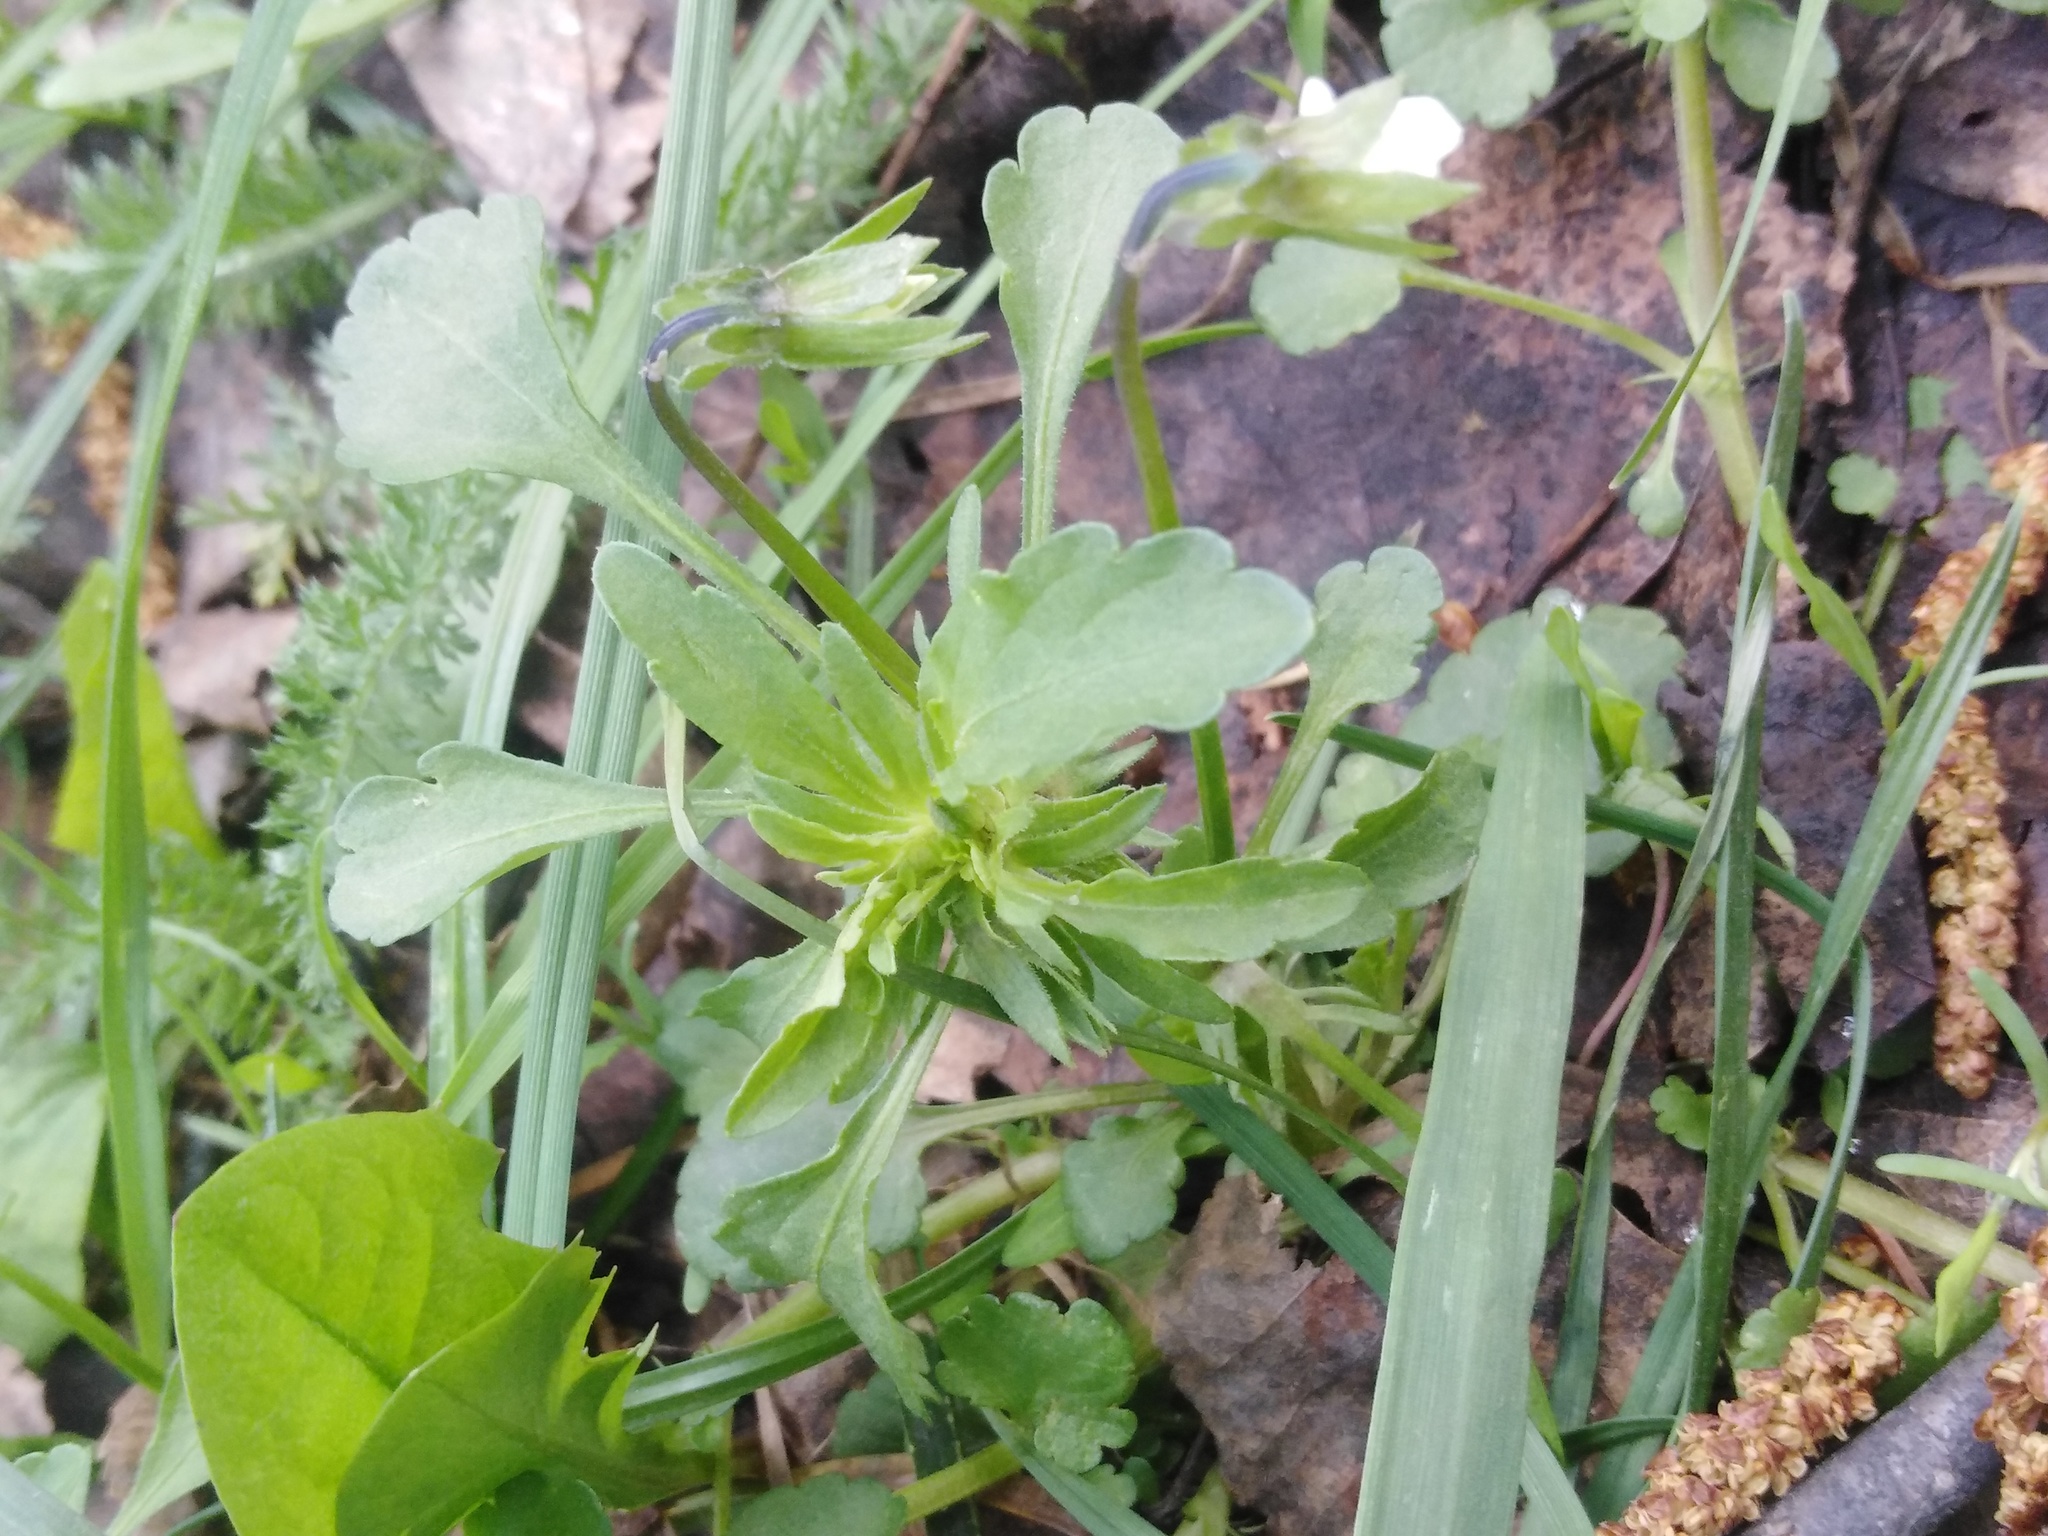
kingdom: Plantae
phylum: Tracheophyta
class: Magnoliopsida
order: Malpighiales
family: Violaceae
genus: Viola
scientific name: Viola arvensis
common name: Field pansy
